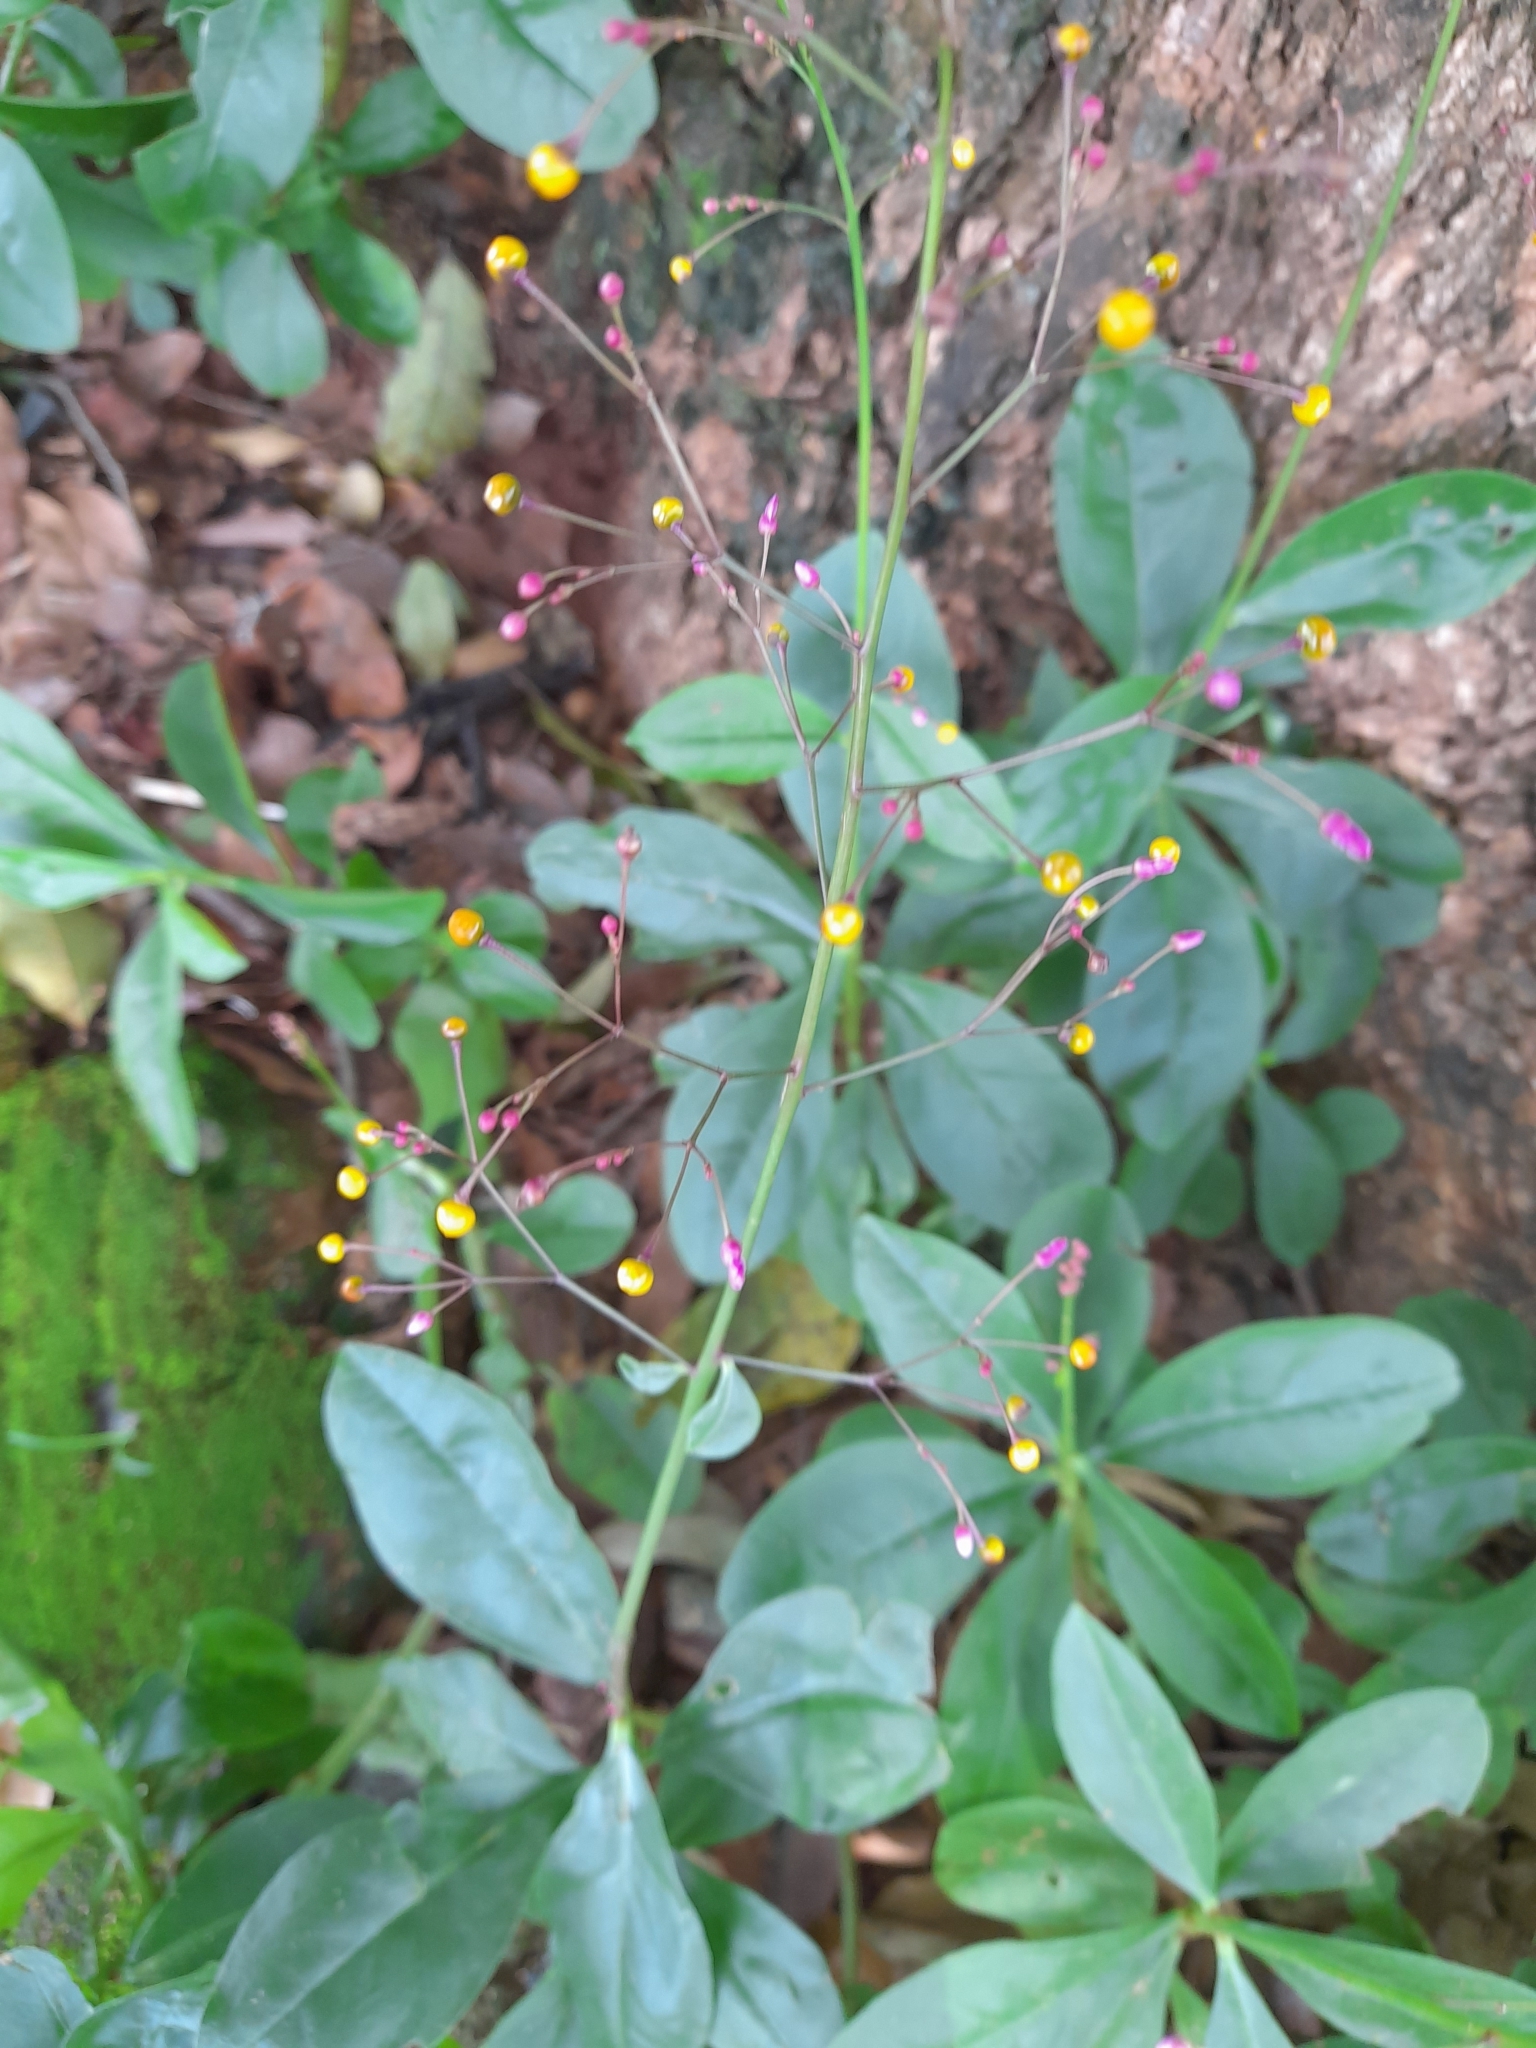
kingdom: Plantae
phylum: Tracheophyta
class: Magnoliopsida
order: Caryophyllales
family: Talinaceae
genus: Talinum
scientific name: Talinum paniculatum
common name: Jewels of opar
